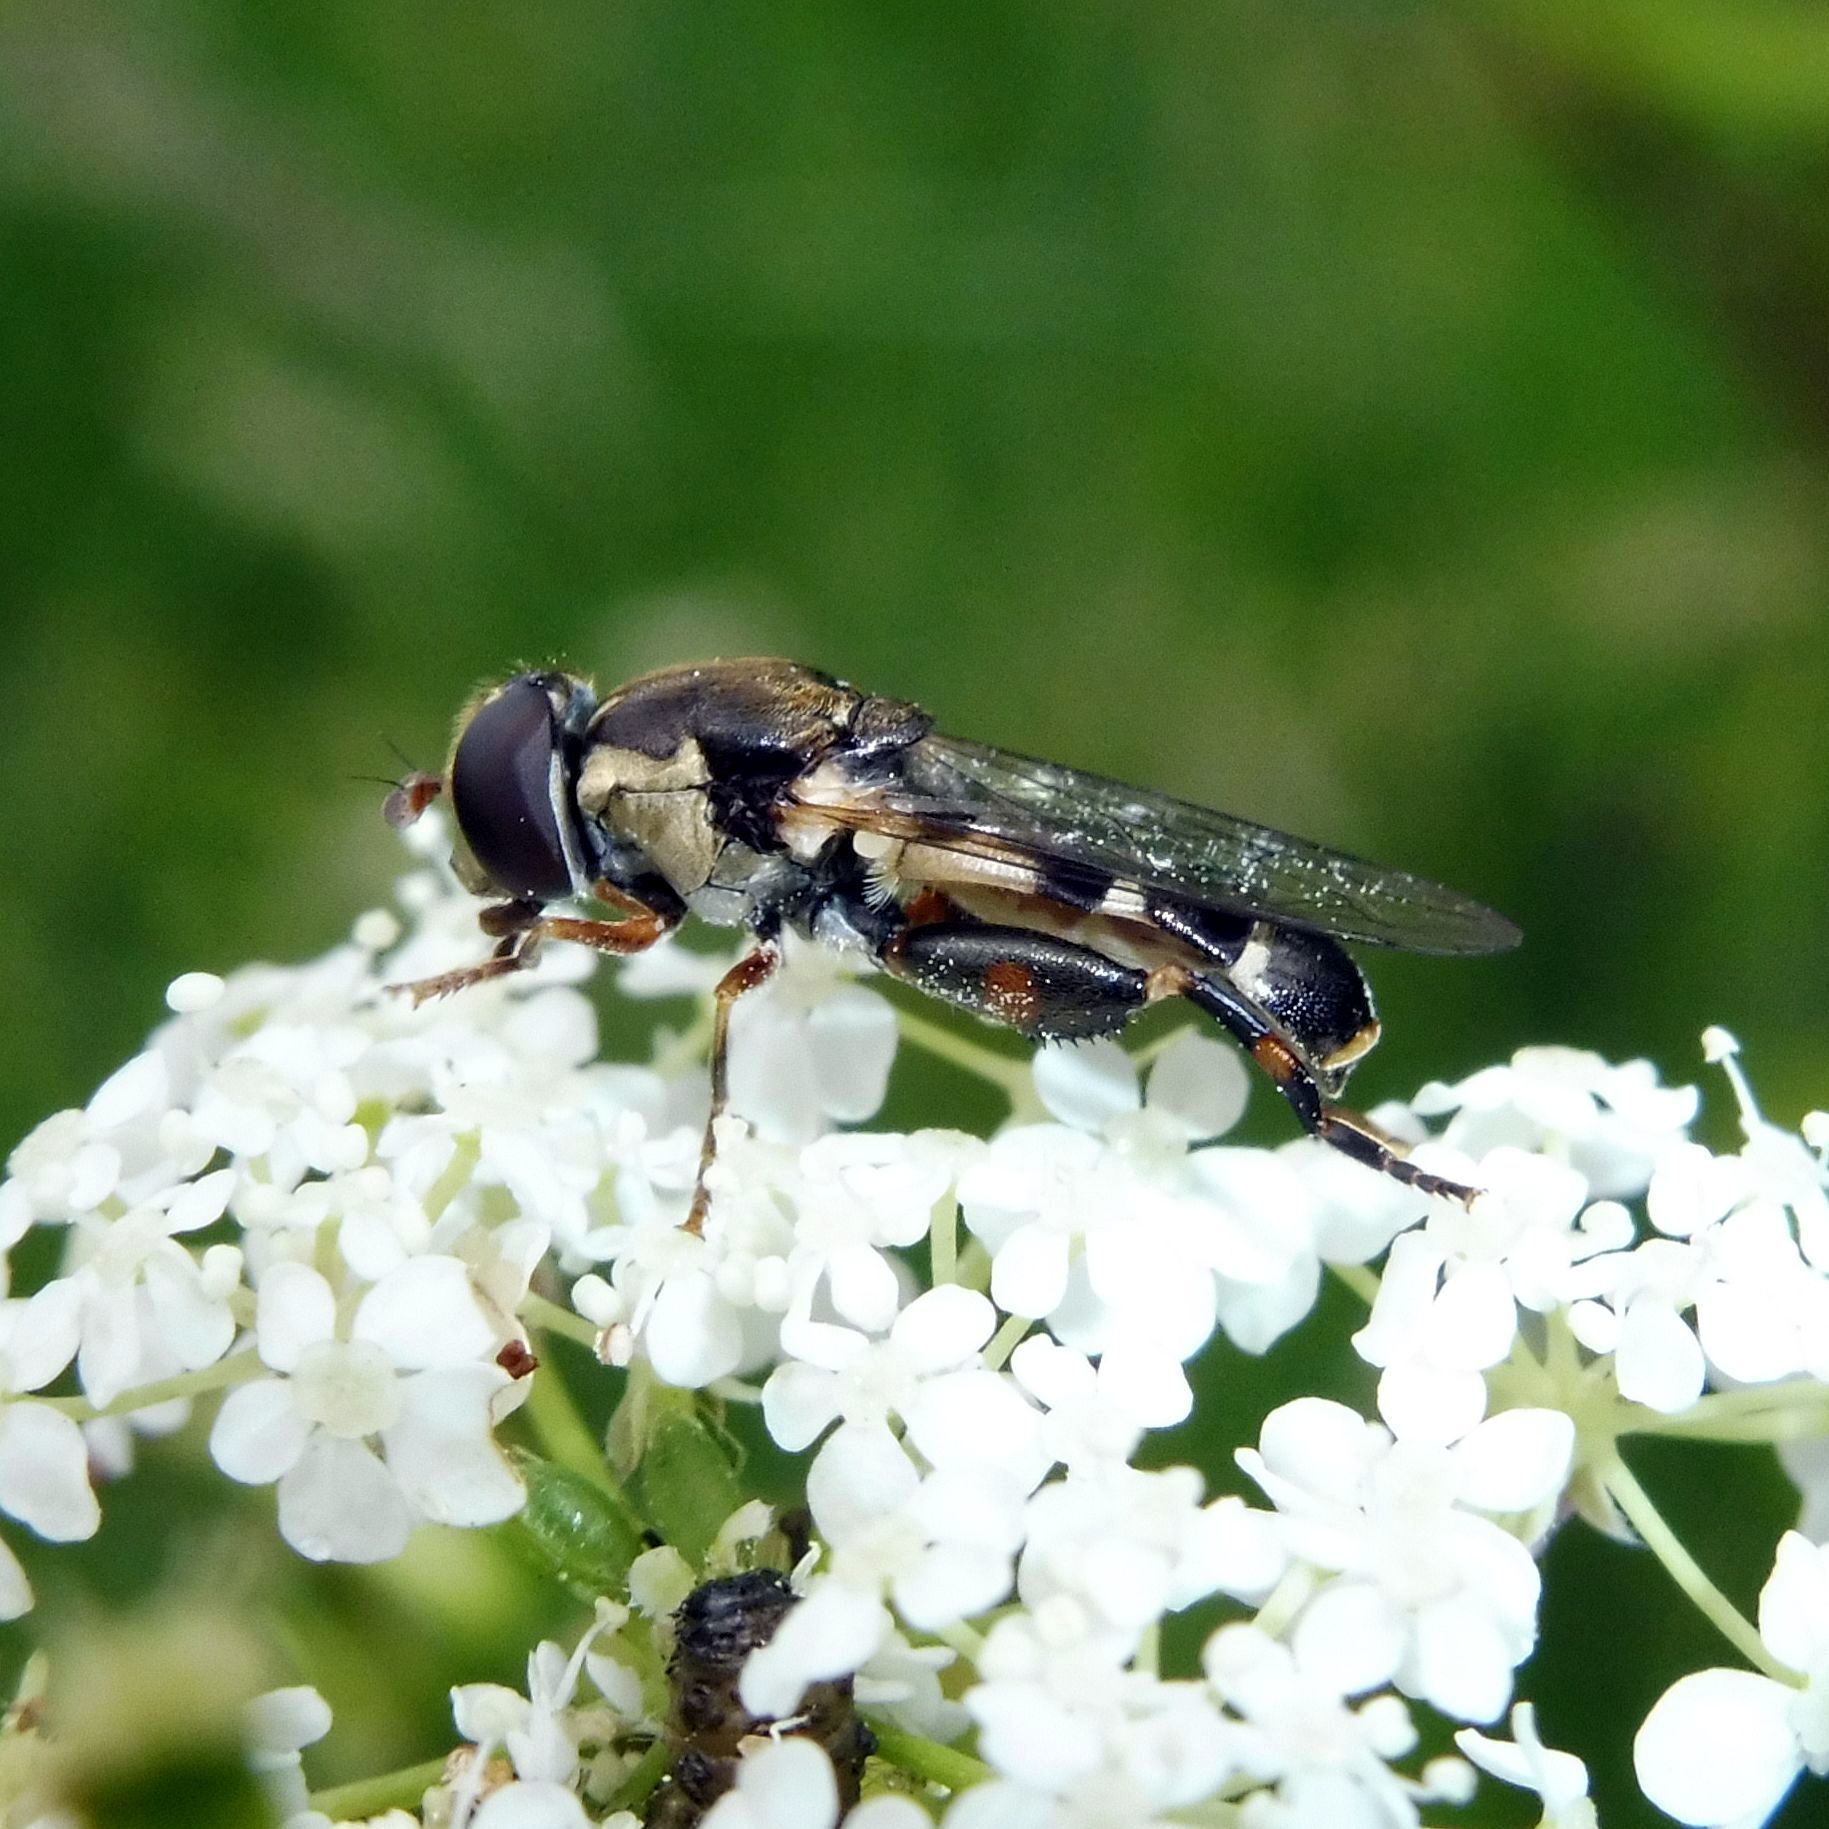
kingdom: Animalia
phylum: Arthropoda
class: Insecta
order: Diptera
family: Syrphidae
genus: Syritta
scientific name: Syritta pipiens
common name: Hover fly
